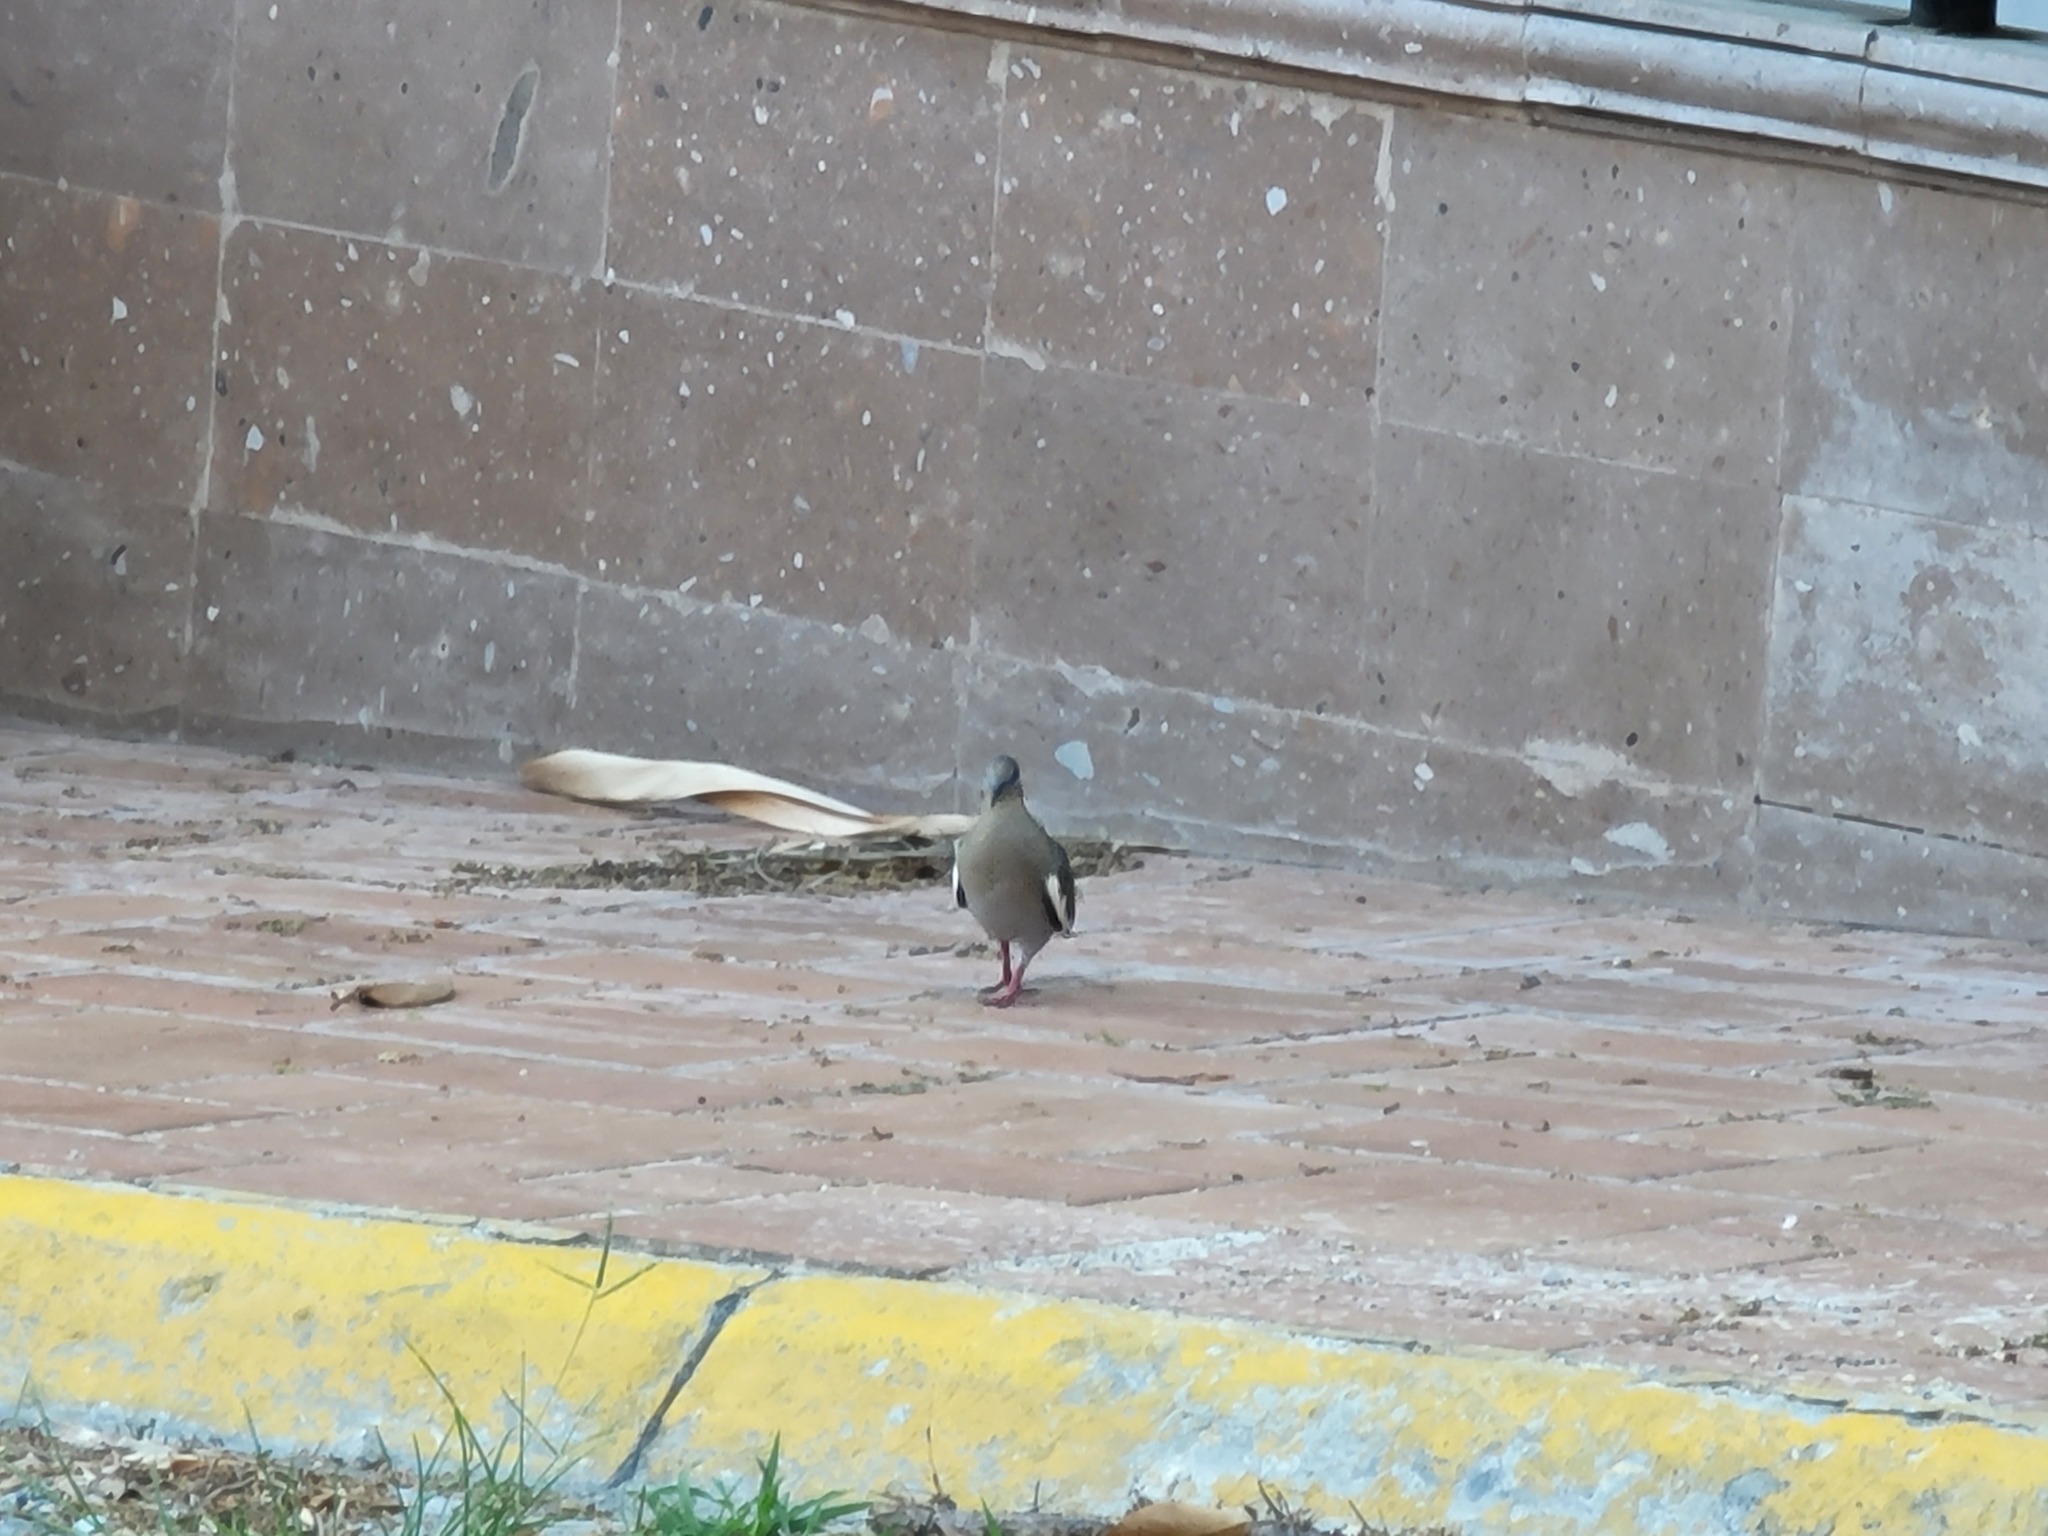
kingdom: Animalia
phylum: Chordata
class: Aves
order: Columbiformes
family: Columbidae
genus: Zenaida
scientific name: Zenaida asiatica
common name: White-winged dove
